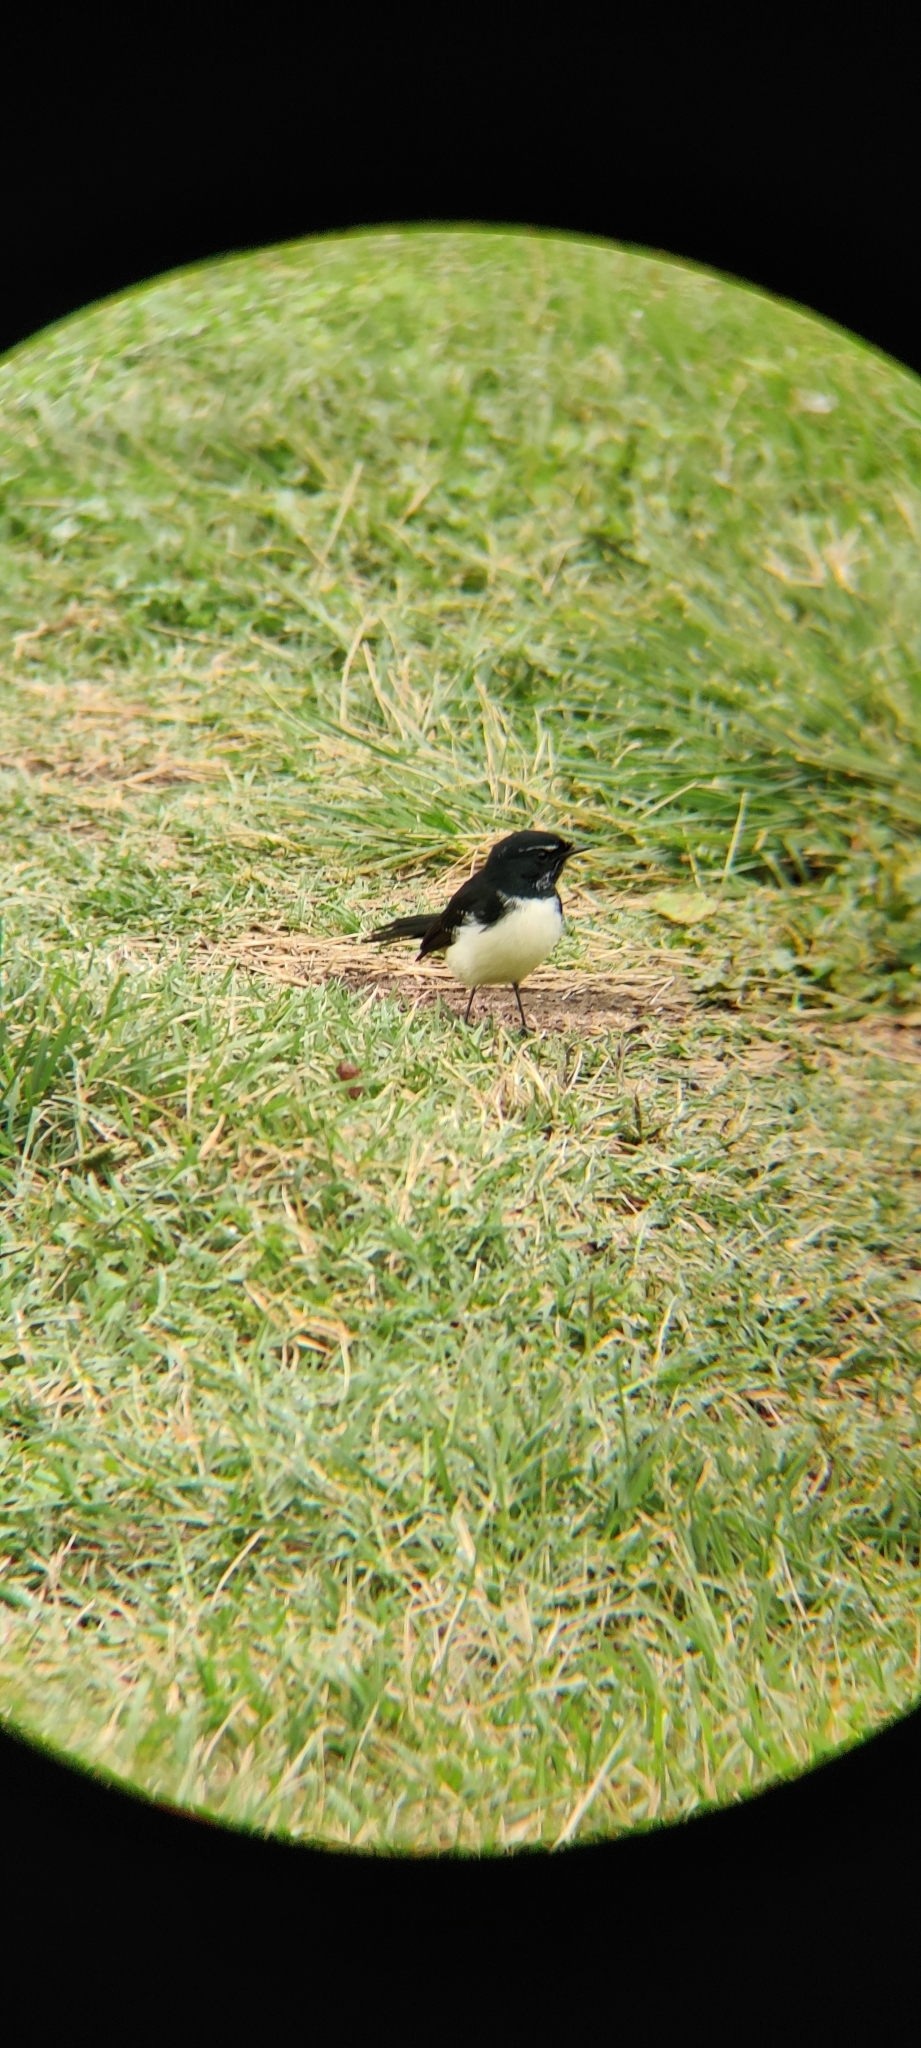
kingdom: Animalia
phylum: Chordata
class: Aves
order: Passeriformes
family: Rhipiduridae
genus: Rhipidura
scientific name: Rhipidura leucophrys
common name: Willie wagtail
